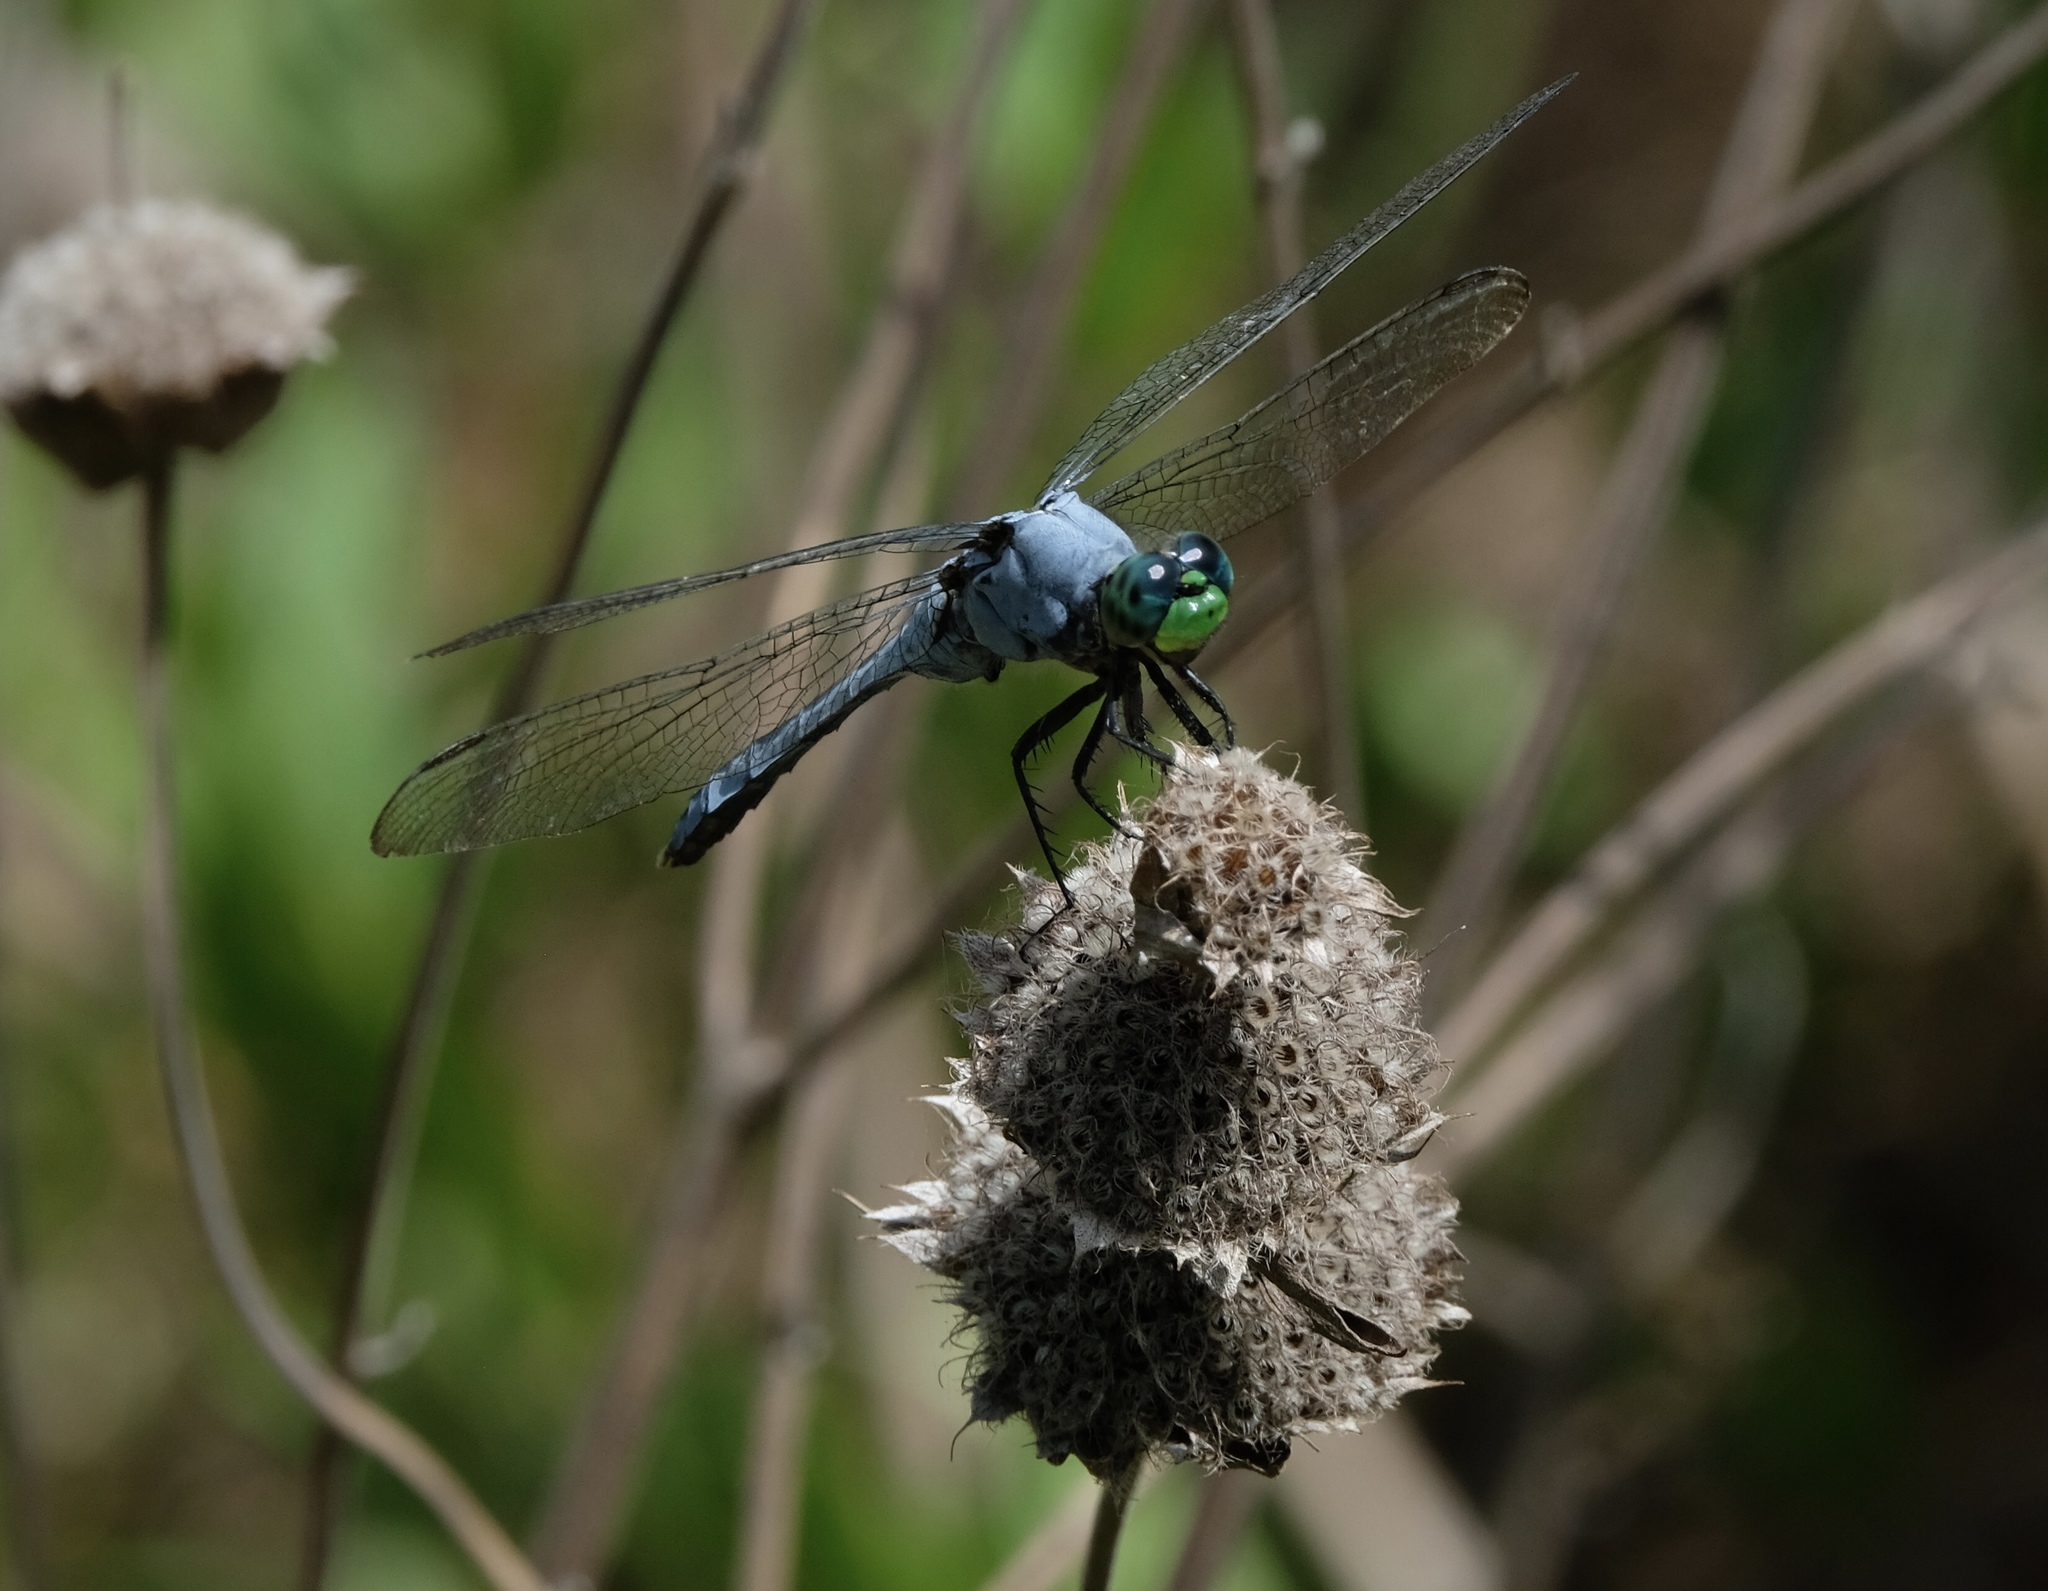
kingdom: Animalia
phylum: Arthropoda
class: Insecta
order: Odonata
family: Libellulidae
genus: Erythemis
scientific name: Erythemis simplicicollis
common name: Eastern pondhawk
